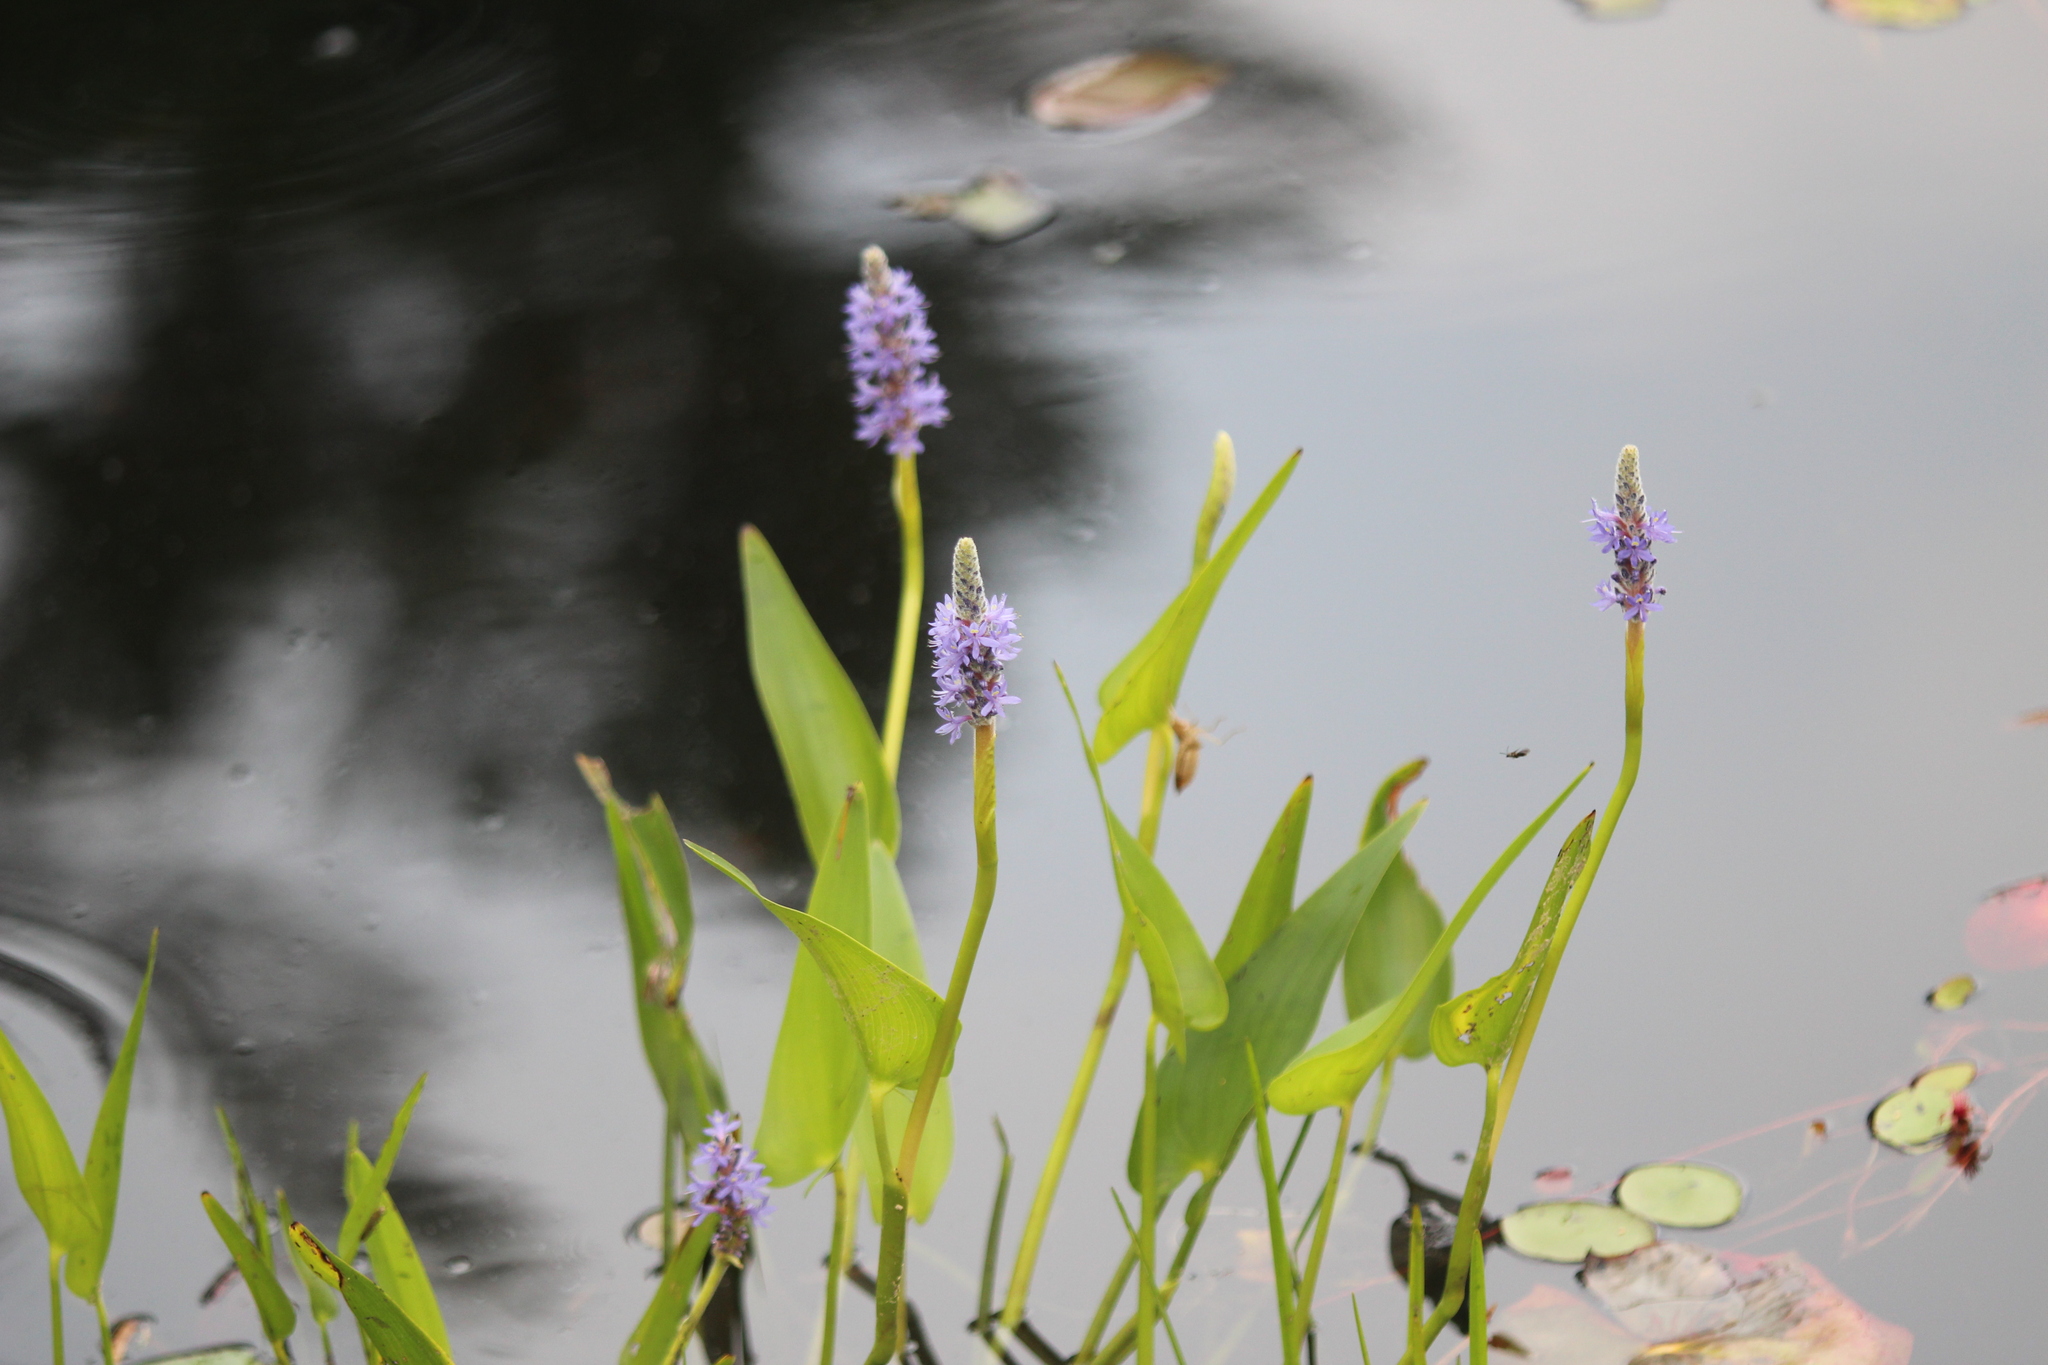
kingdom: Plantae
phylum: Tracheophyta
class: Liliopsida
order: Commelinales
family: Pontederiaceae
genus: Pontederia
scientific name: Pontederia cordata
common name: Pickerelweed
